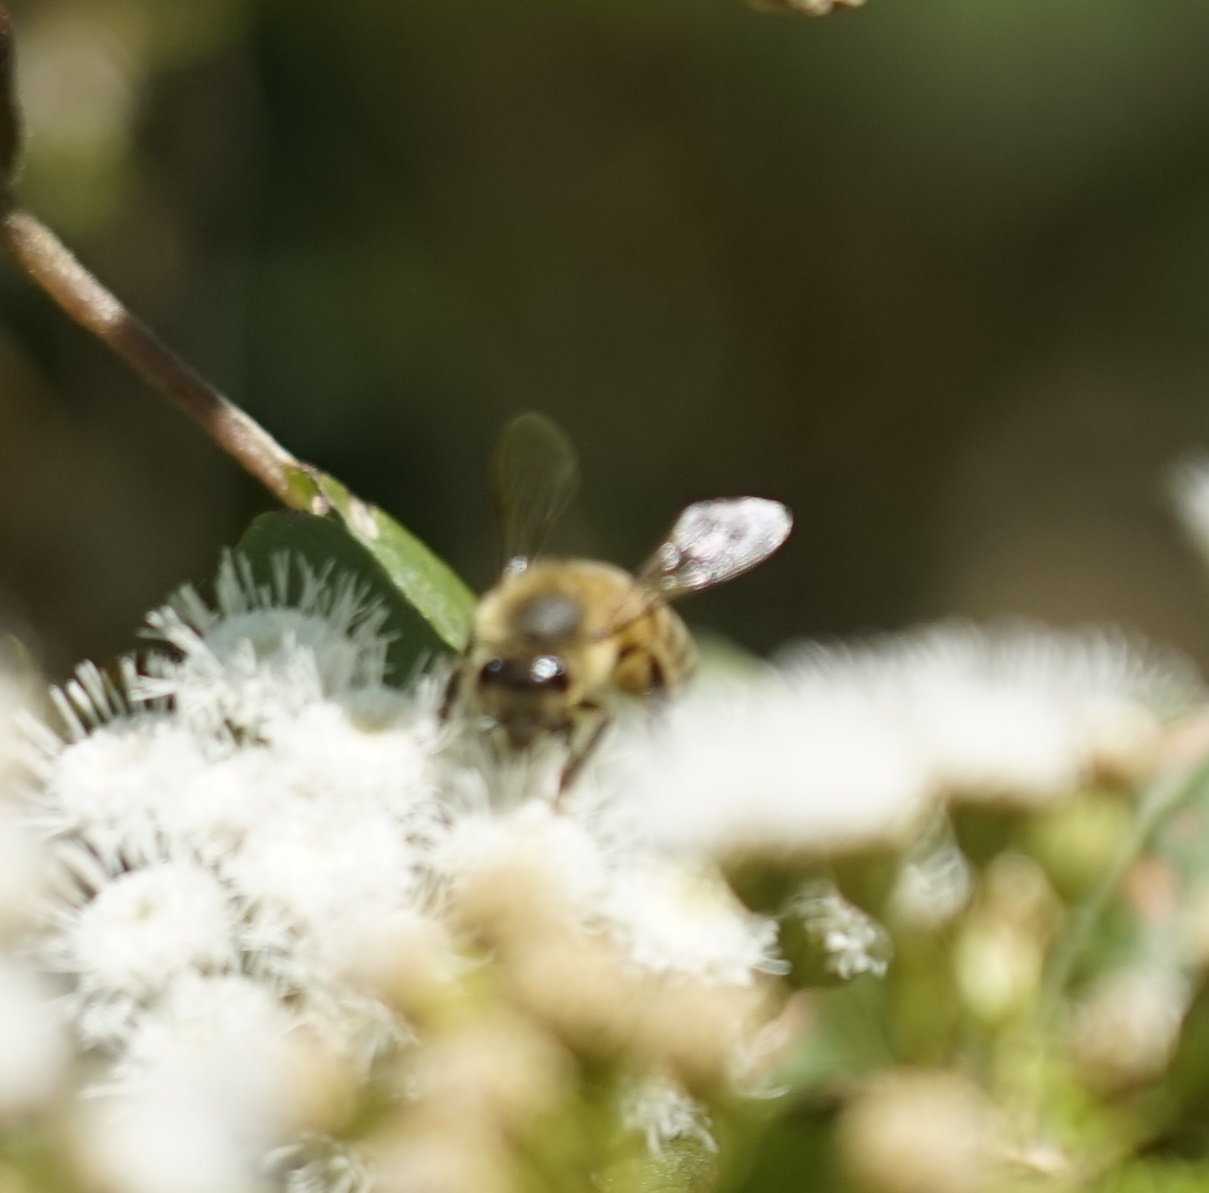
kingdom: Animalia
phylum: Arthropoda
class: Insecta
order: Hymenoptera
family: Apidae
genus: Apis
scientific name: Apis mellifera
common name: Honey bee
